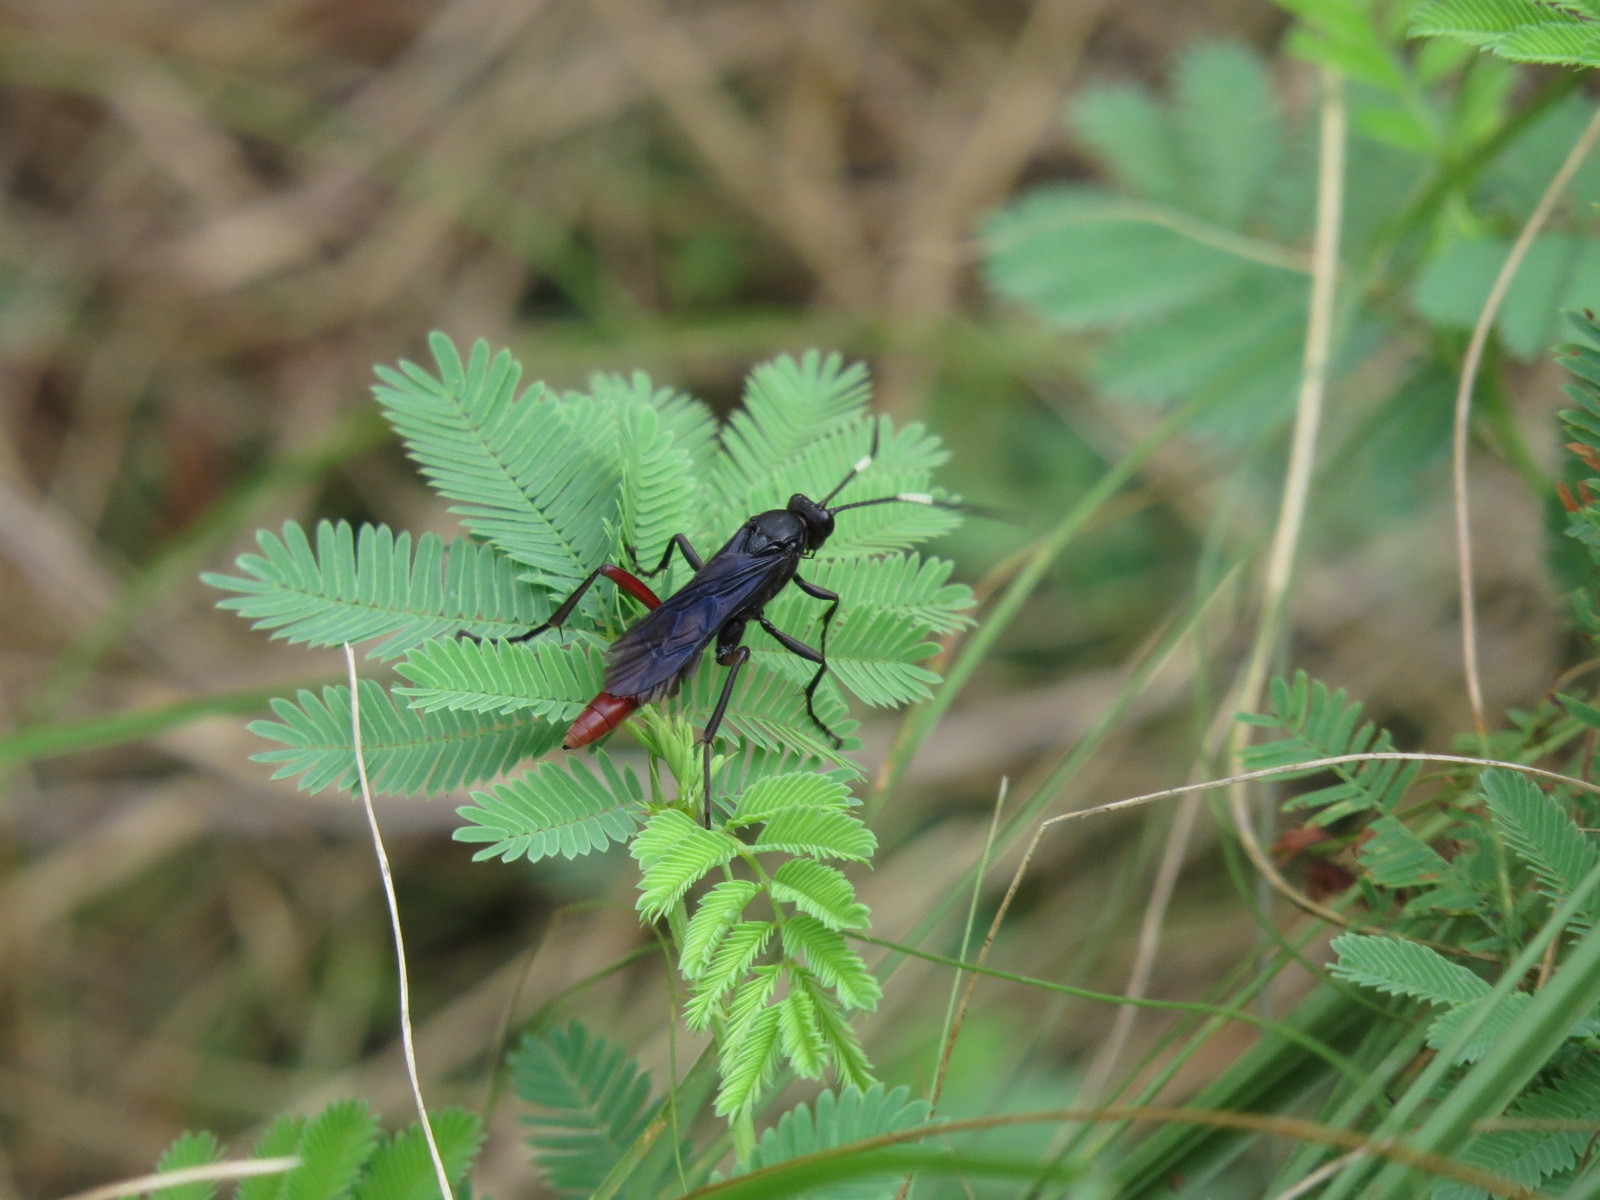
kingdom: Animalia
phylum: Arthropoda
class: Insecta
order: Hymenoptera
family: Ichneumonidae
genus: Limonethe
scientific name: Limonethe maurator
